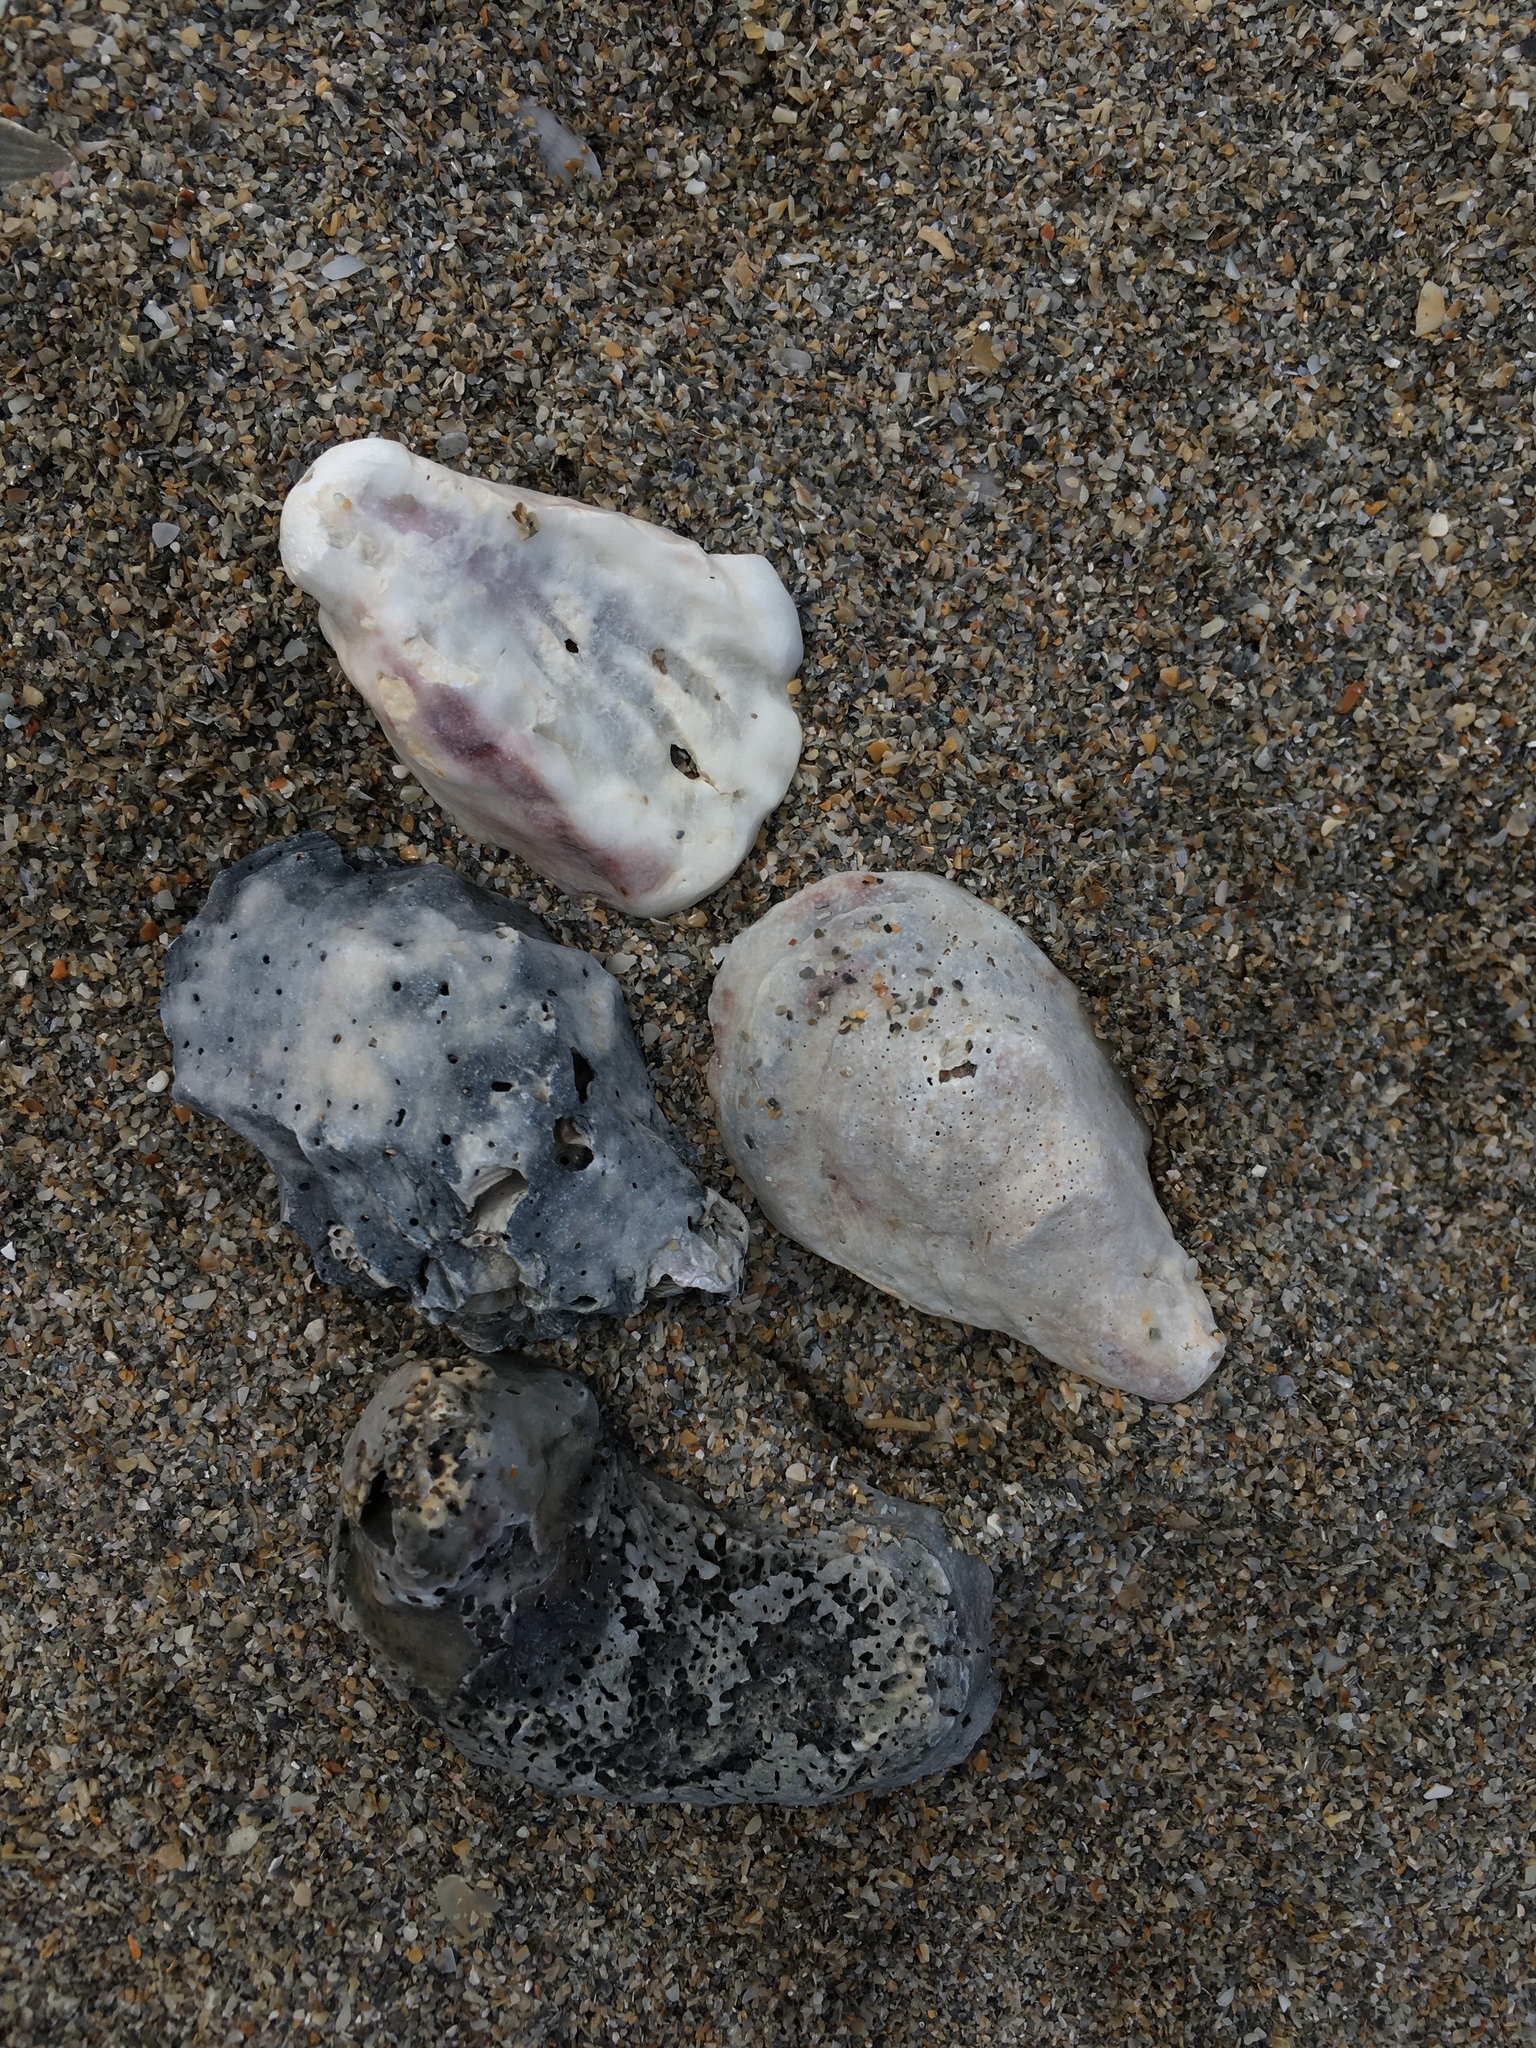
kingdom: Animalia
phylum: Mollusca
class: Bivalvia
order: Ostreida
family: Ostreidae
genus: Crassostrea
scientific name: Crassostrea virginica
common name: American oyster
